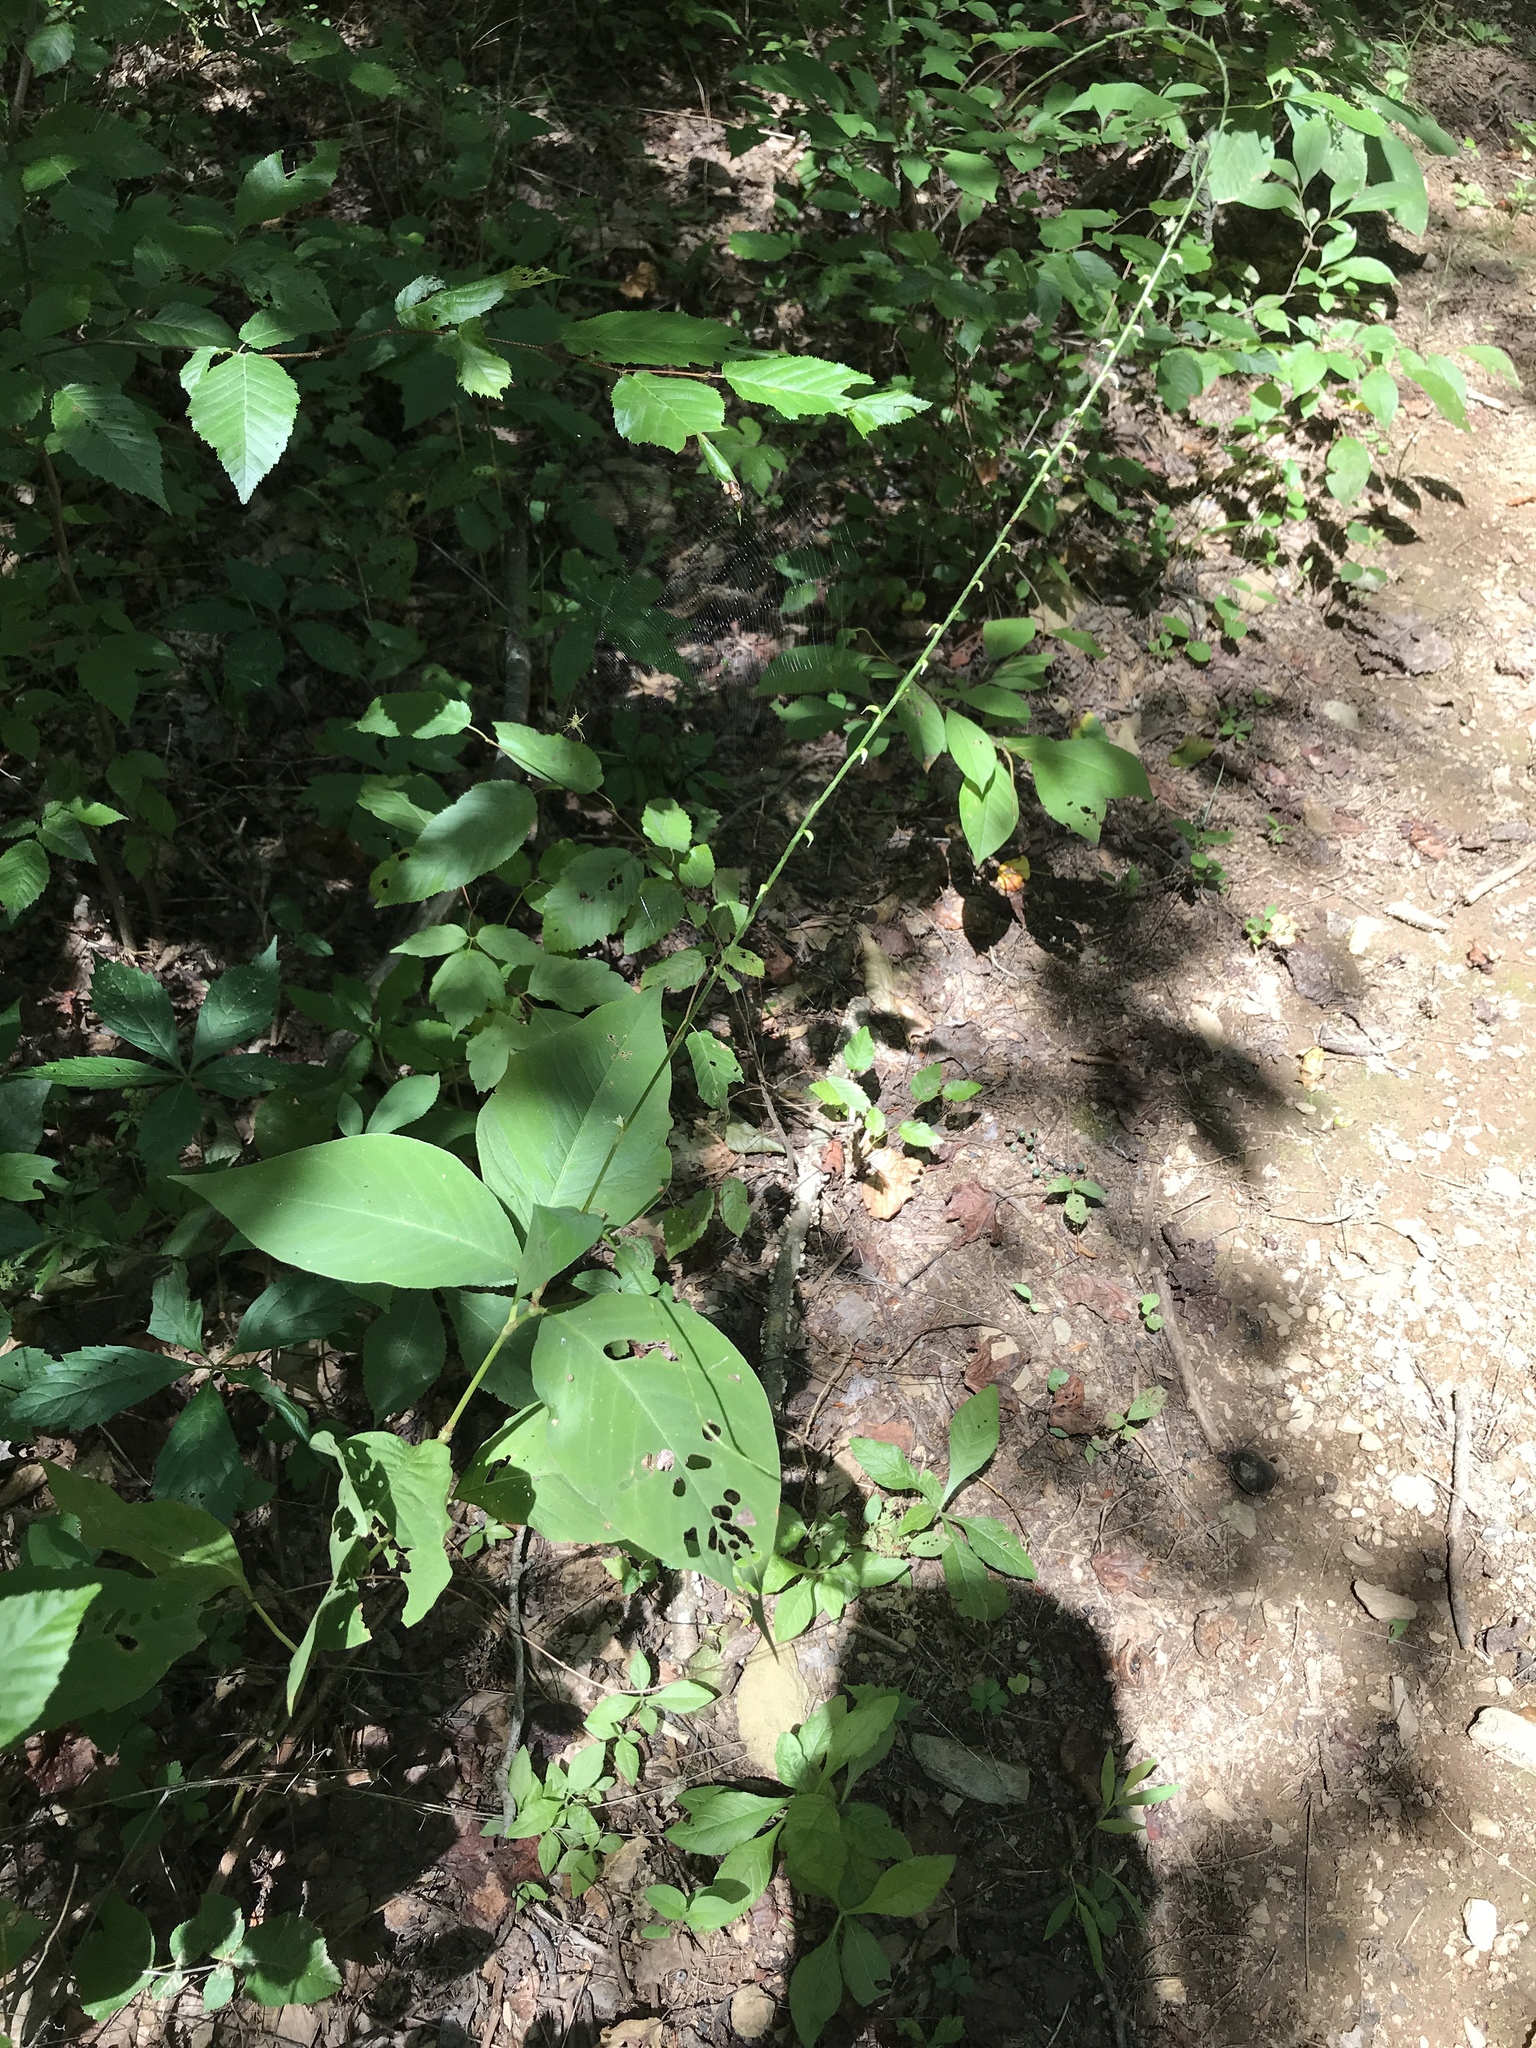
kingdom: Plantae
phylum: Tracheophyta
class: Magnoliopsida
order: Caryophyllales
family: Polygonaceae
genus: Persicaria
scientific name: Persicaria virginiana
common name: Jumpseed
